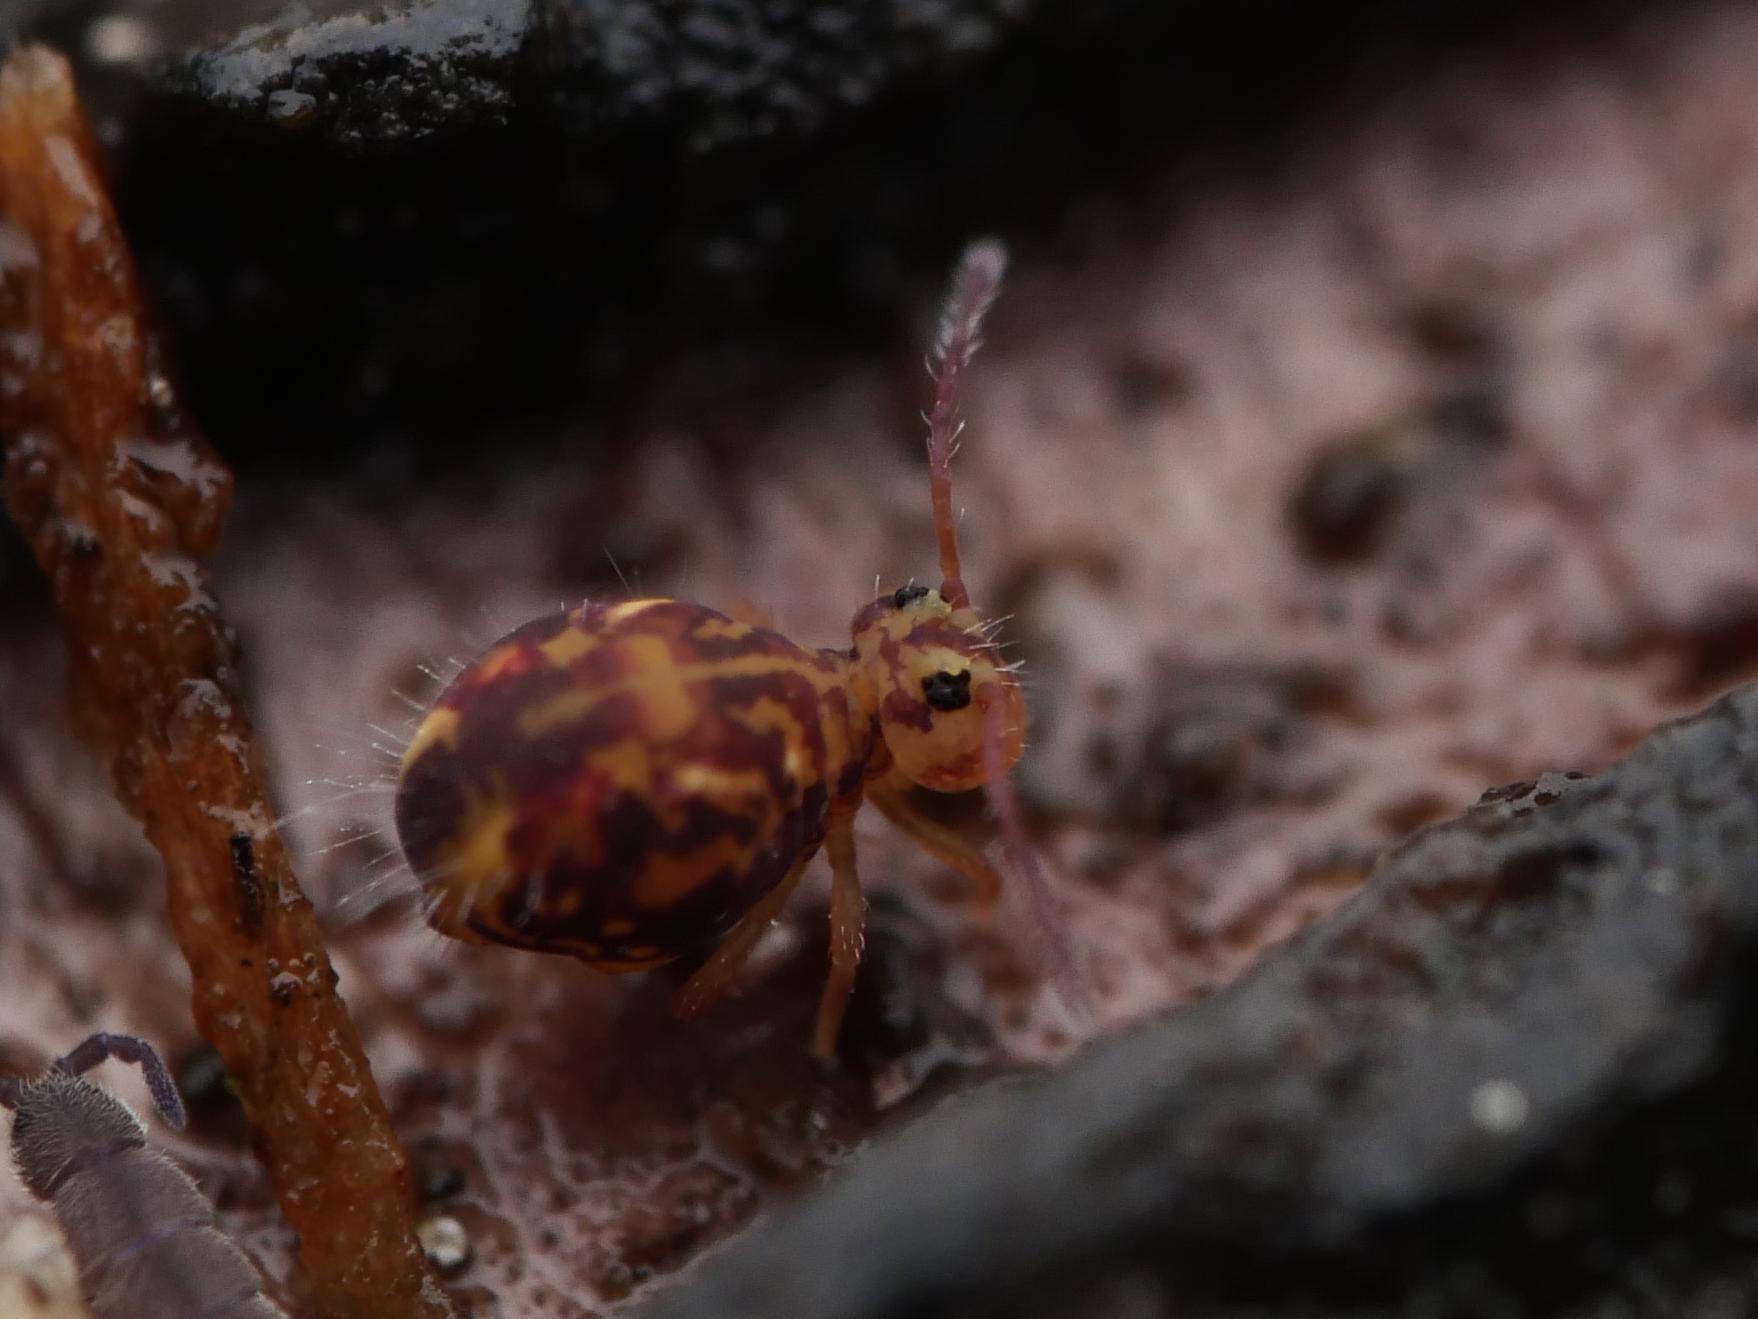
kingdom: Animalia
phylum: Arthropoda
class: Collembola
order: Symphypleona
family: Dicyrtomidae
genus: Dicyrtomina
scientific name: Dicyrtomina ornata
